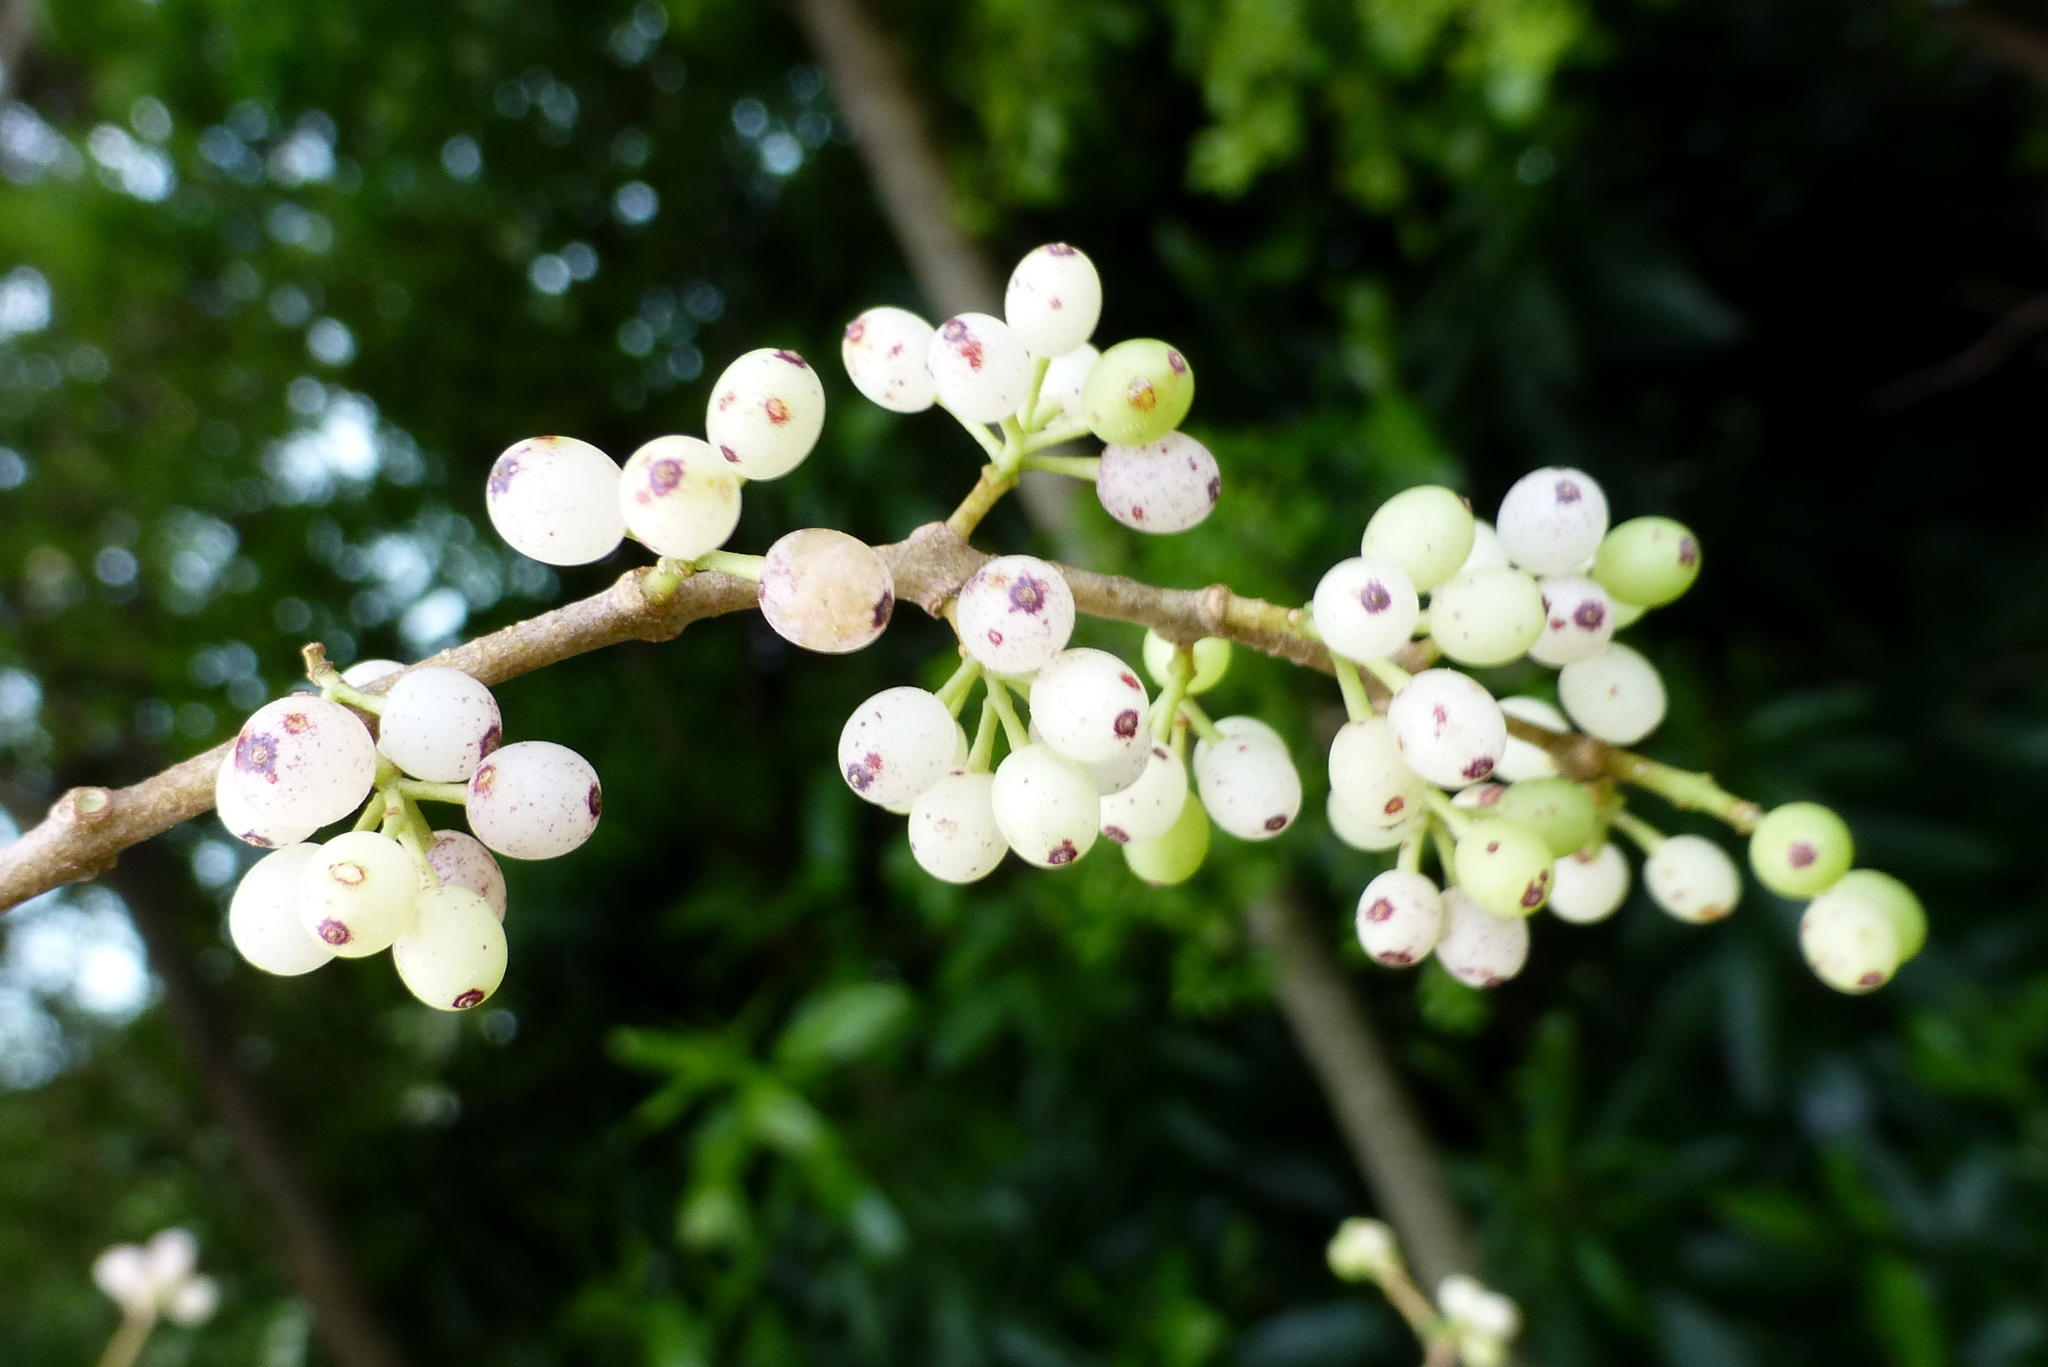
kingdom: Plantae
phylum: Tracheophyta
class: Magnoliopsida
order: Santalales
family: Loranthaceae
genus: Tupeia
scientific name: Tupeia antarctica
